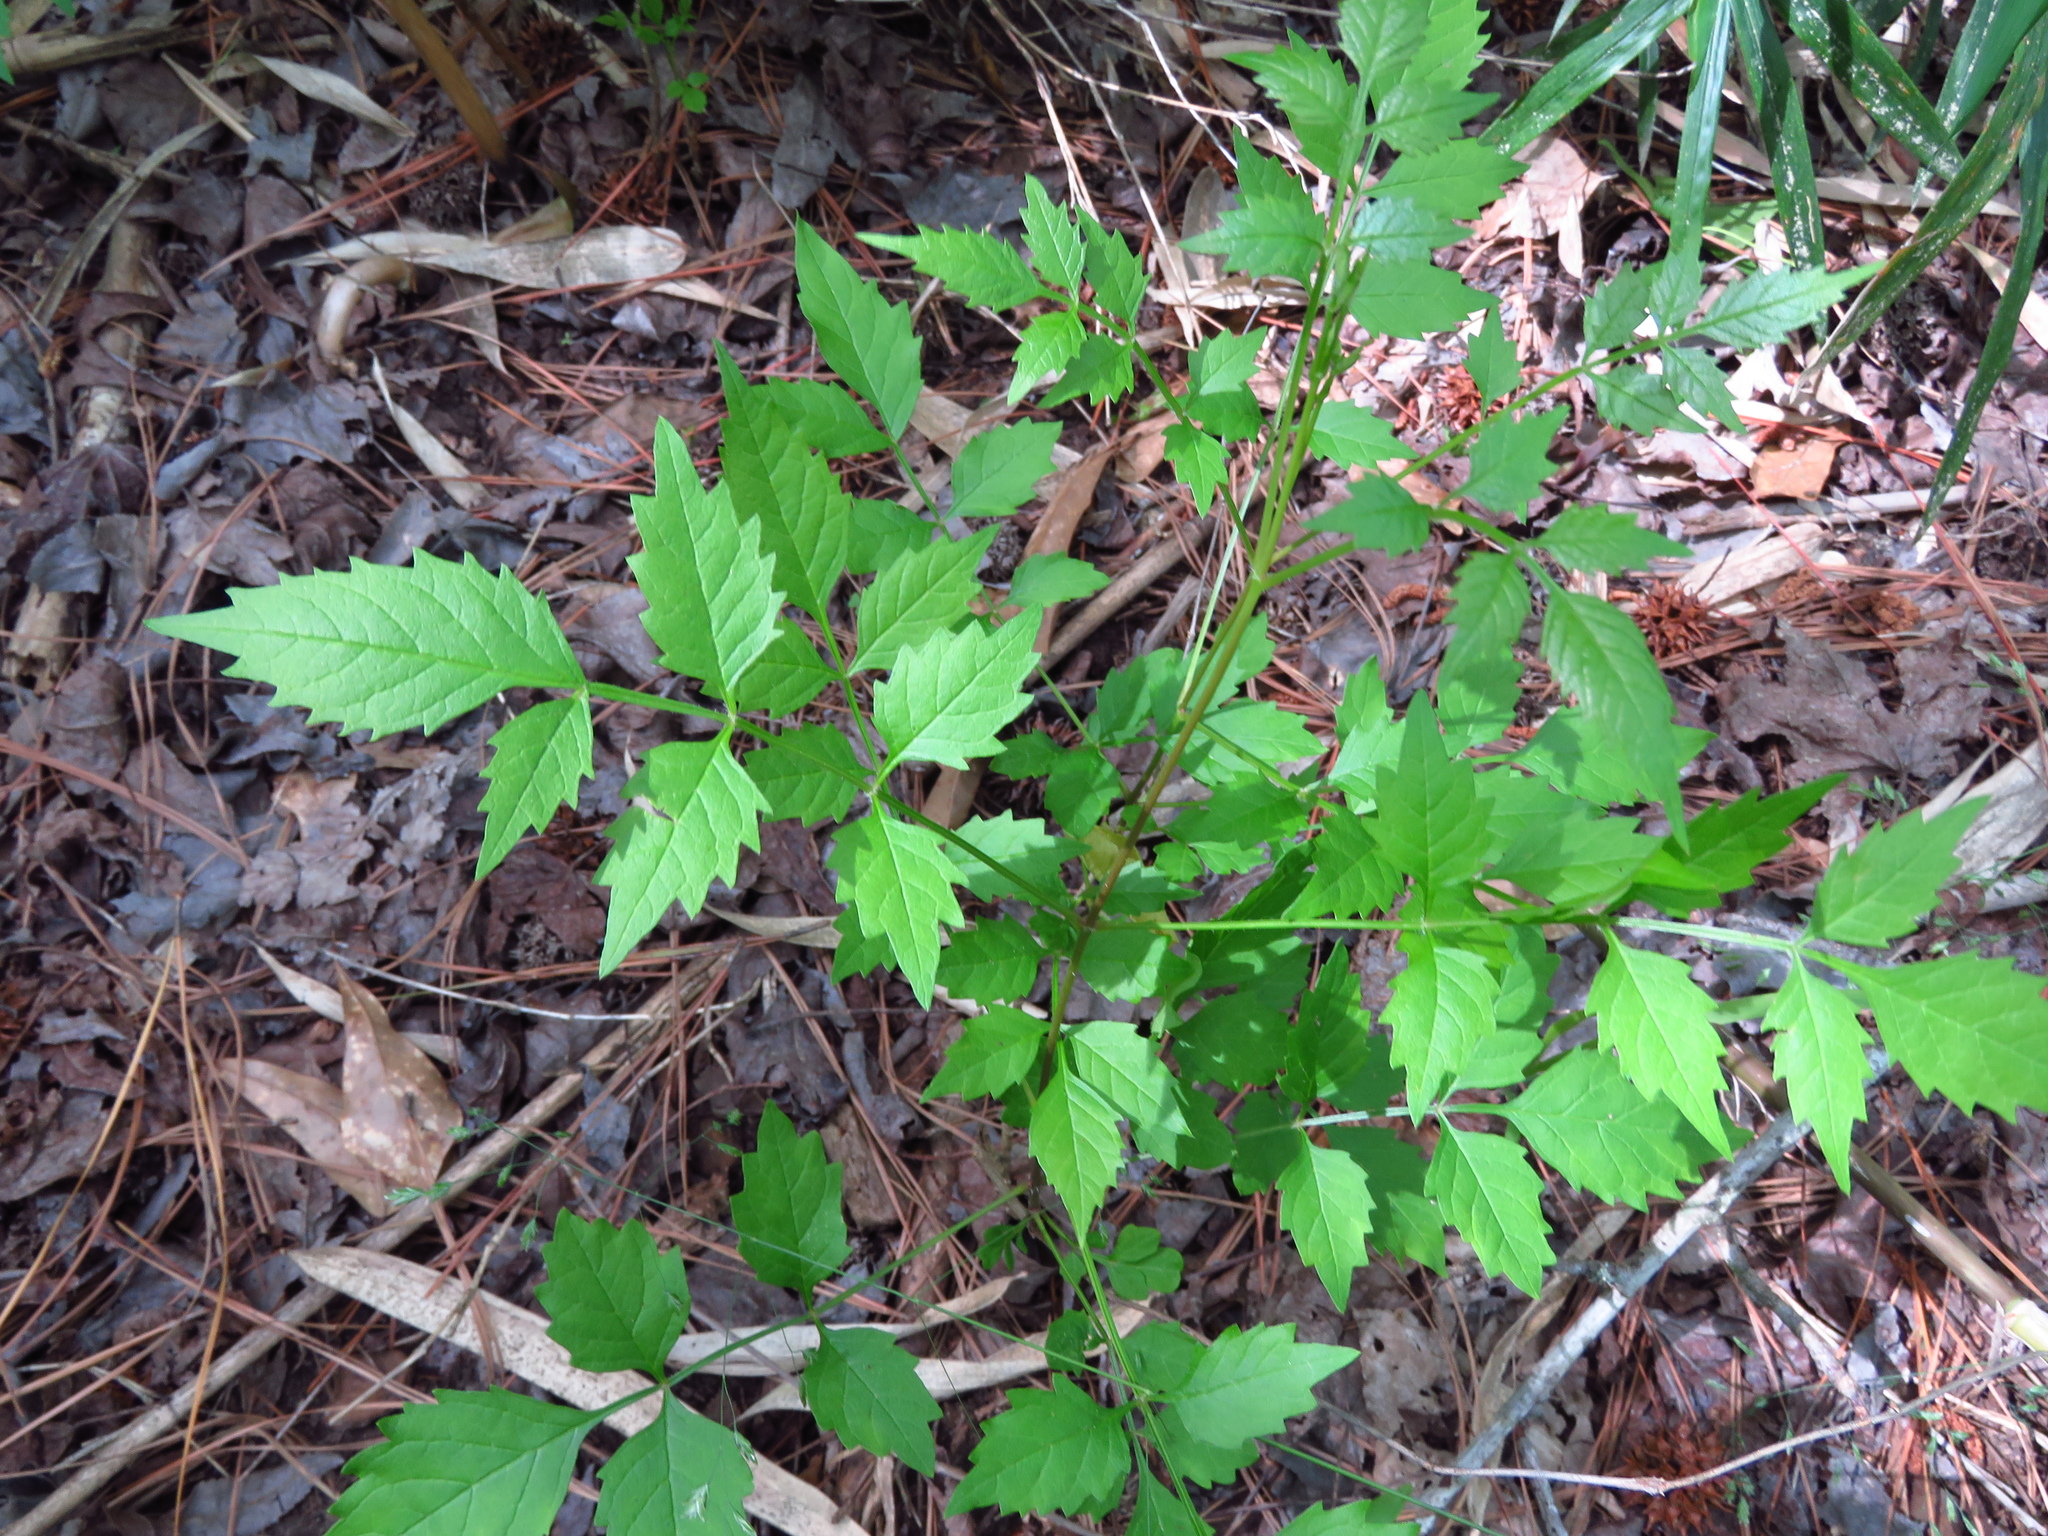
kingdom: Plantae
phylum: Tracheophyta
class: Magnoliopsida
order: Lamiales
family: Bignoniaceae
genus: Campsis
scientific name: Campsis radicans
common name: Trumpet-creeper
